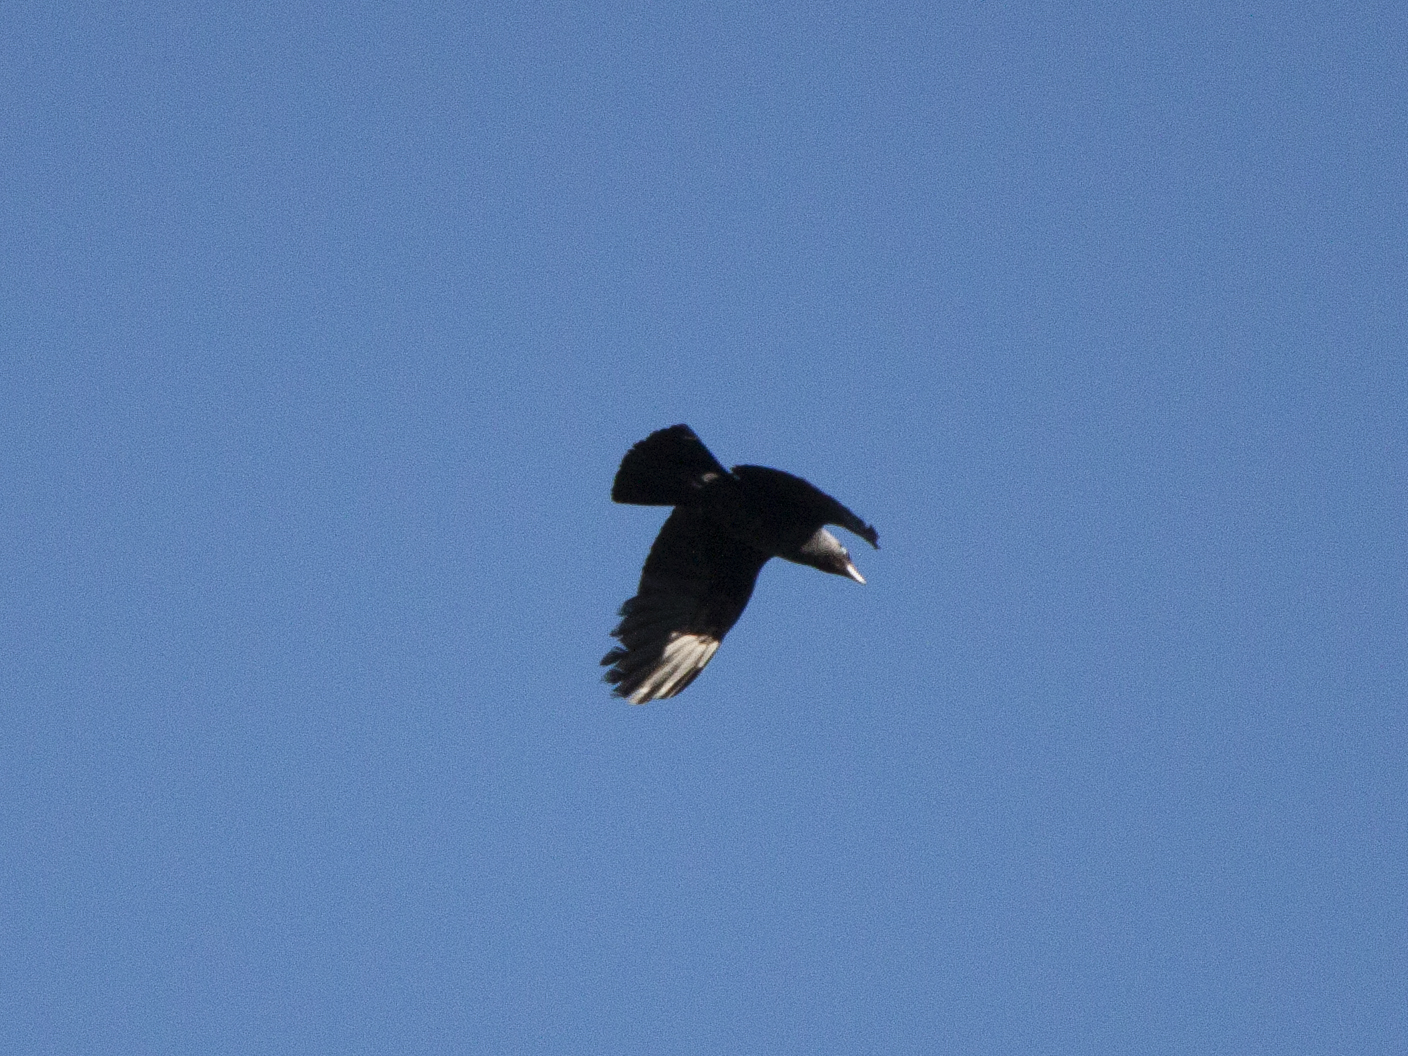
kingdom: Animalia
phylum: Chordata
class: Aves
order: Passeriformes
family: Corvidae
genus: Coloeus
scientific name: Coloeus monedula
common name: Western jackdaw
